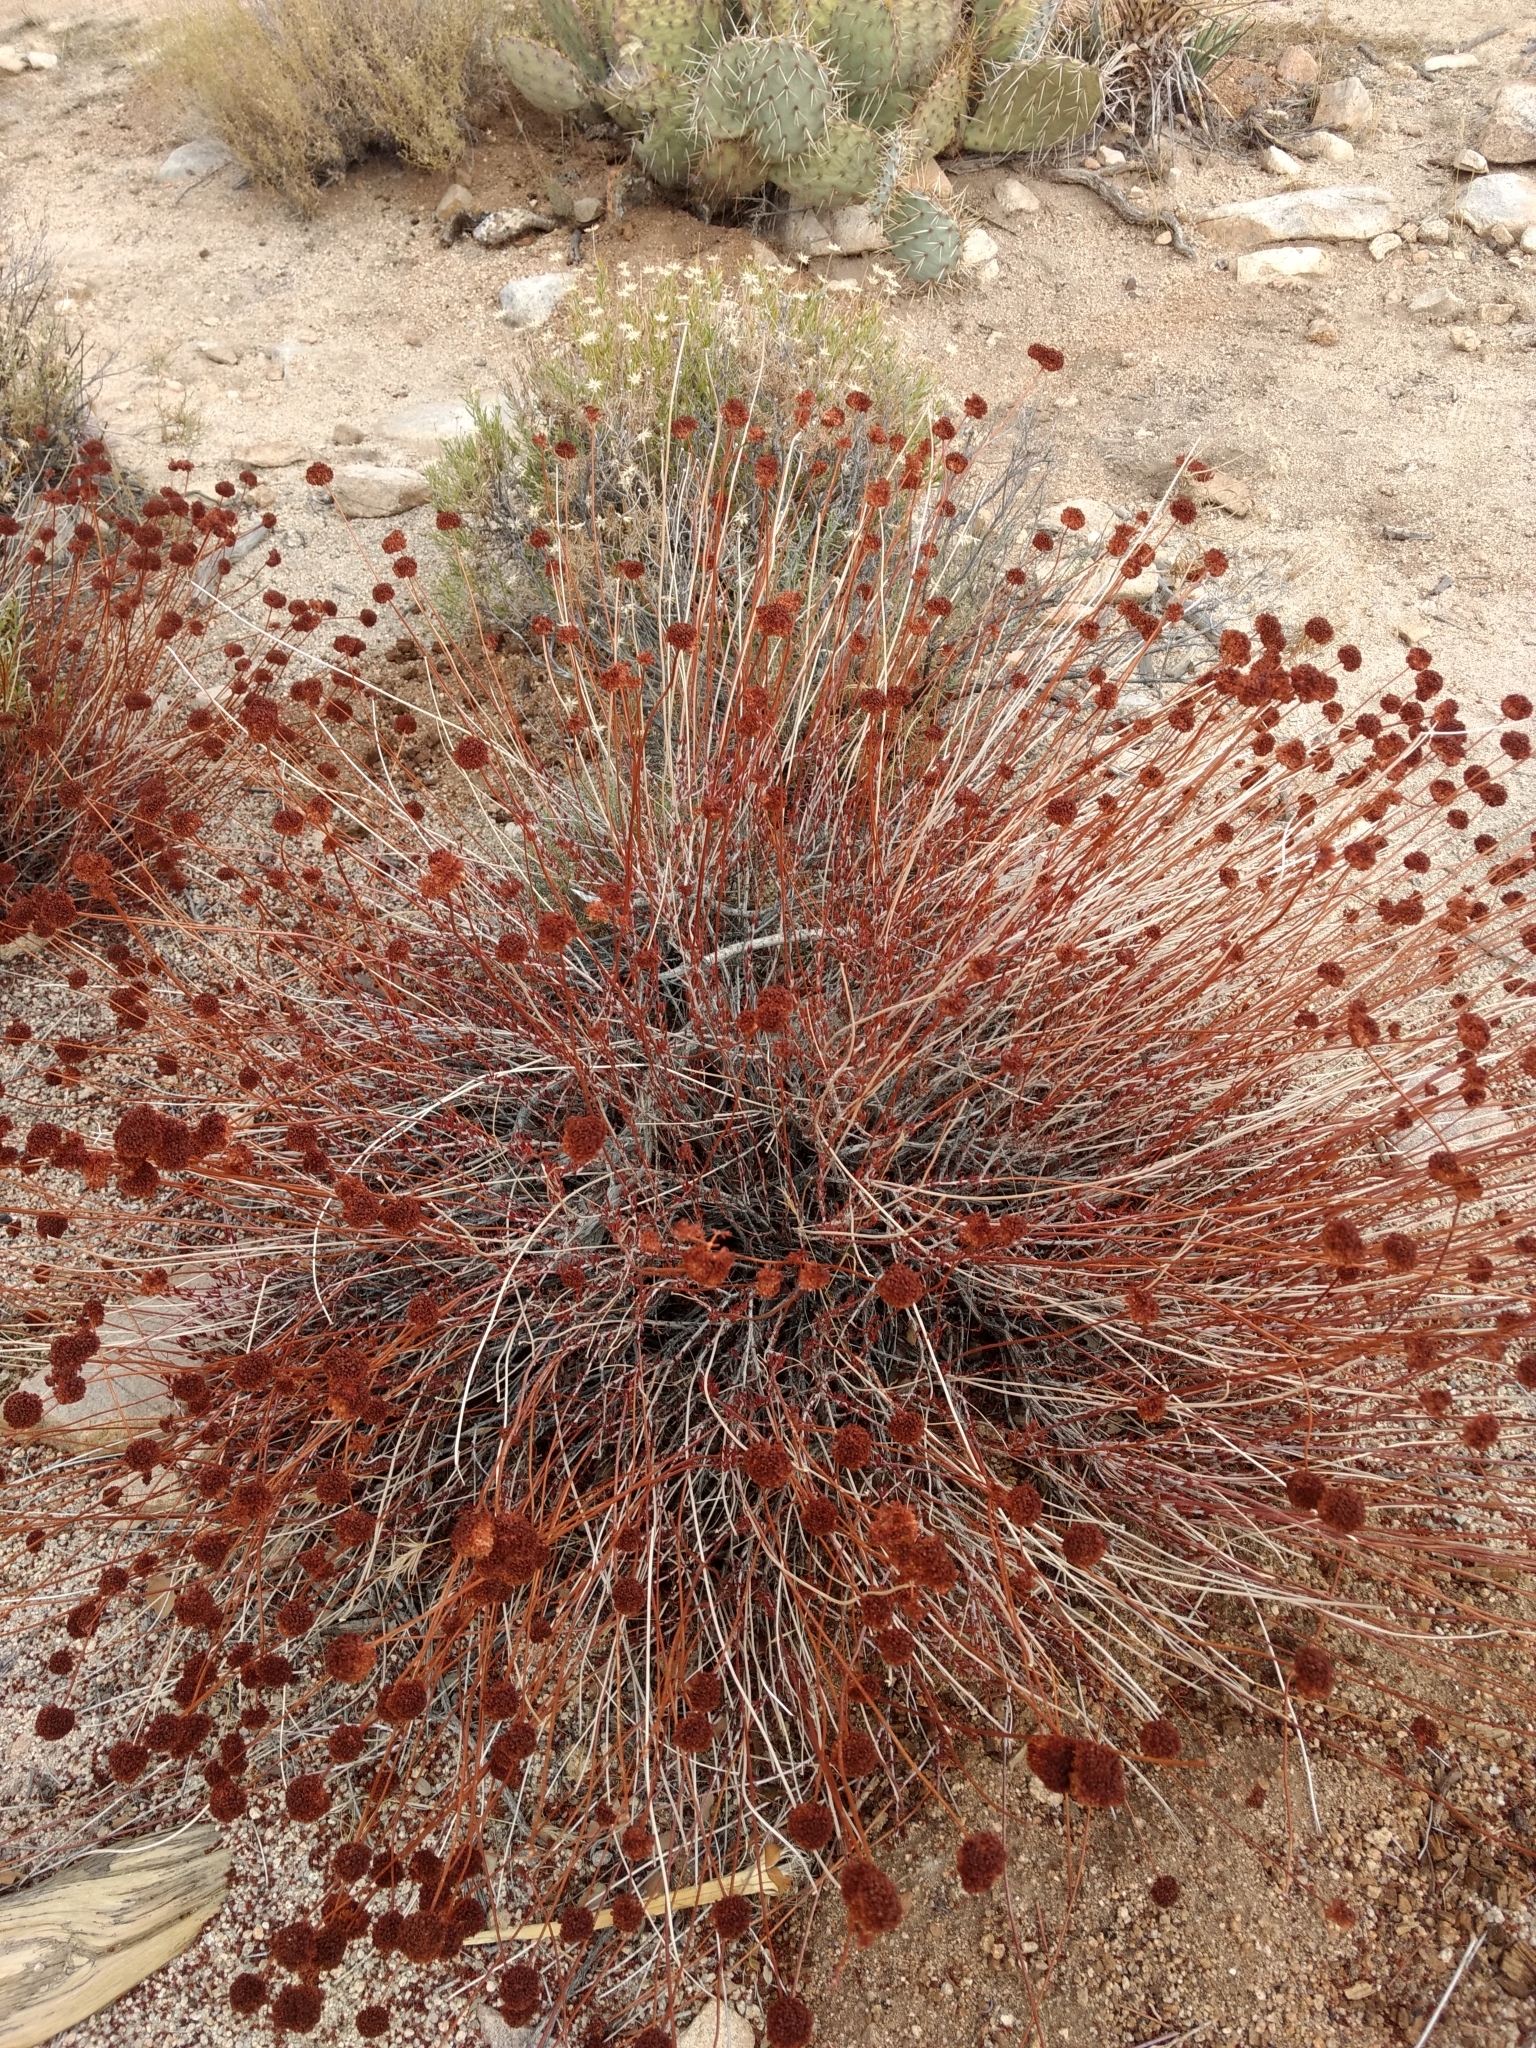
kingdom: Plantae
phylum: Tracheophyta
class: Magnoliopsida
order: Caryophyllales
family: Polygonaceae
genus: Eriogonum
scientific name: Eriogonum fasciculatum
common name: California wild buckwheat
